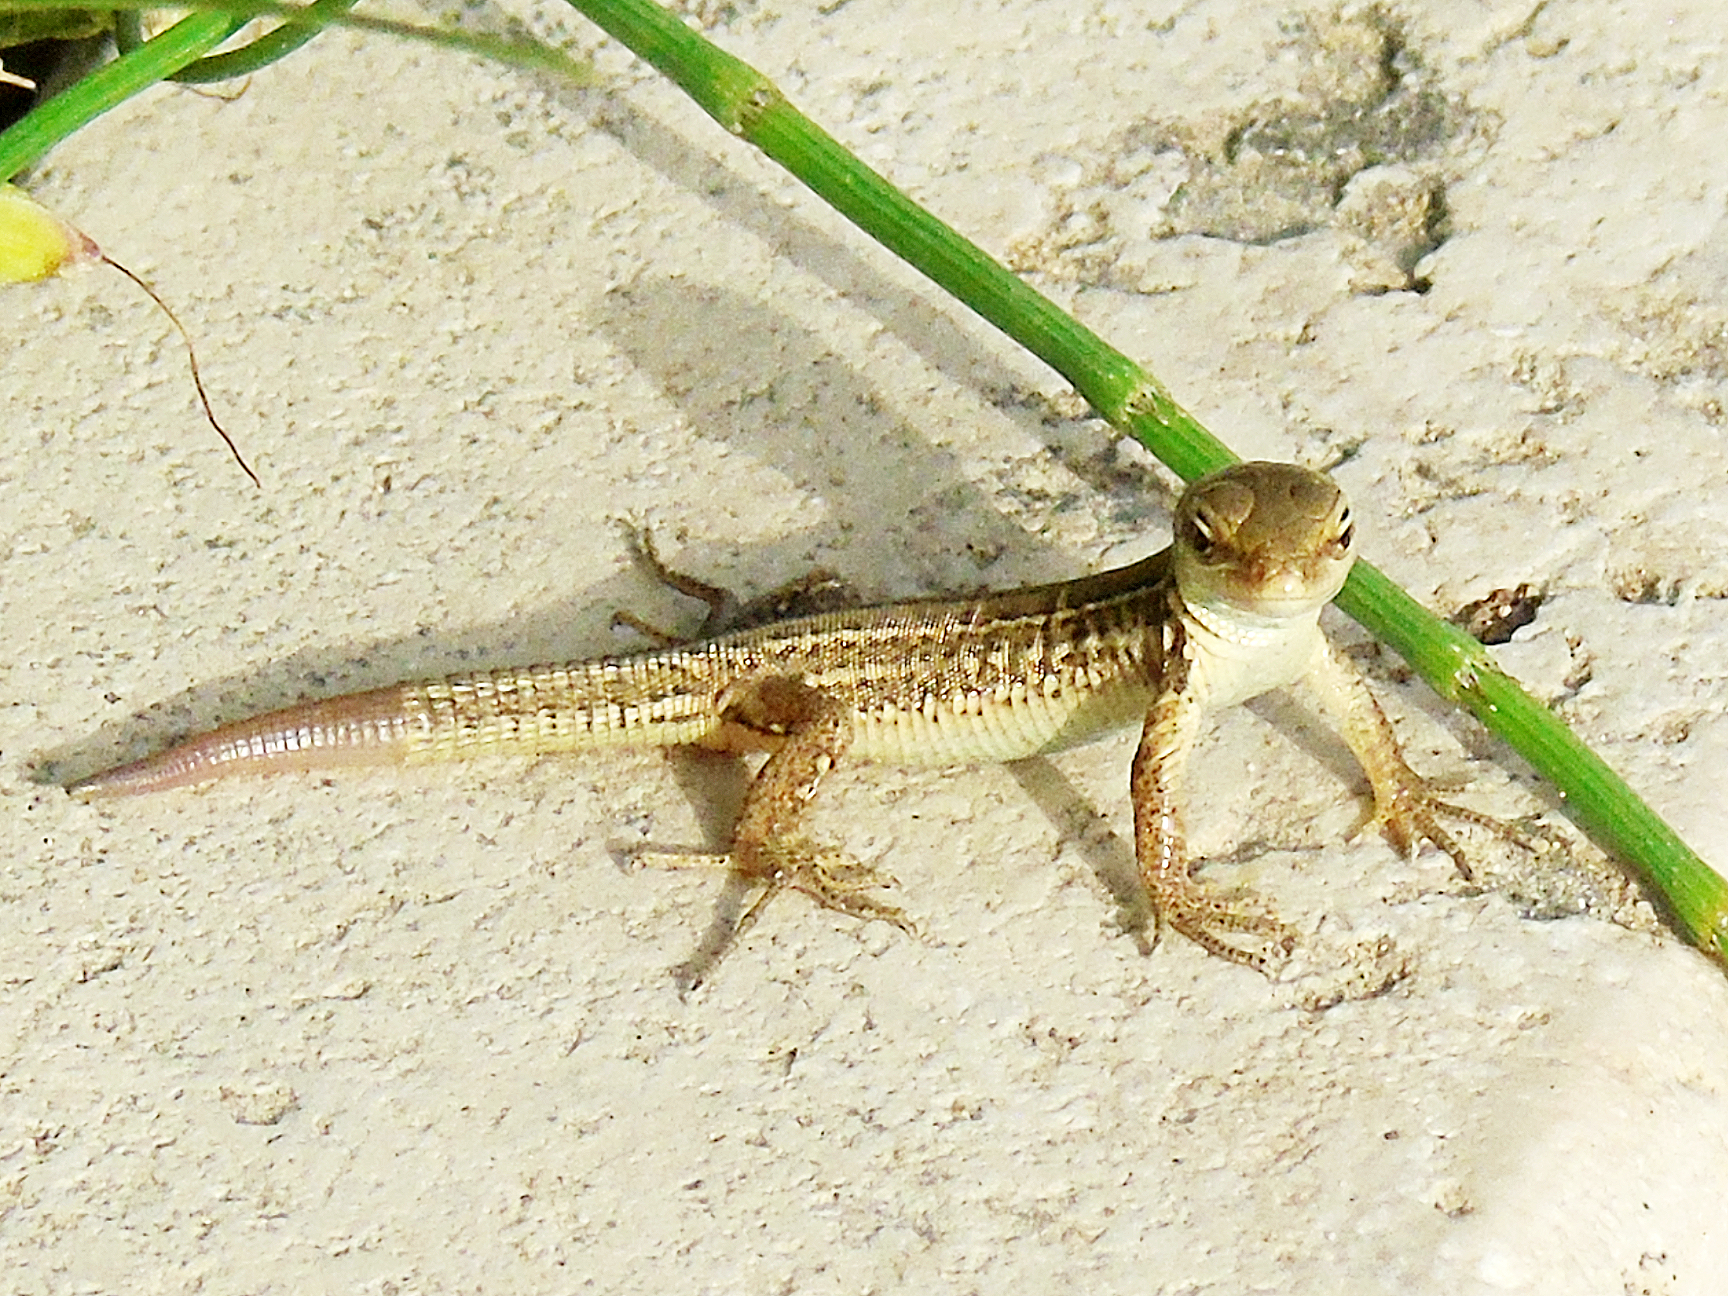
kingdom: Animalia
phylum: Chordata
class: Squamata
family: Lacertidae
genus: Podarcis
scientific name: Podarcis siculus
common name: Italian wall lizard
